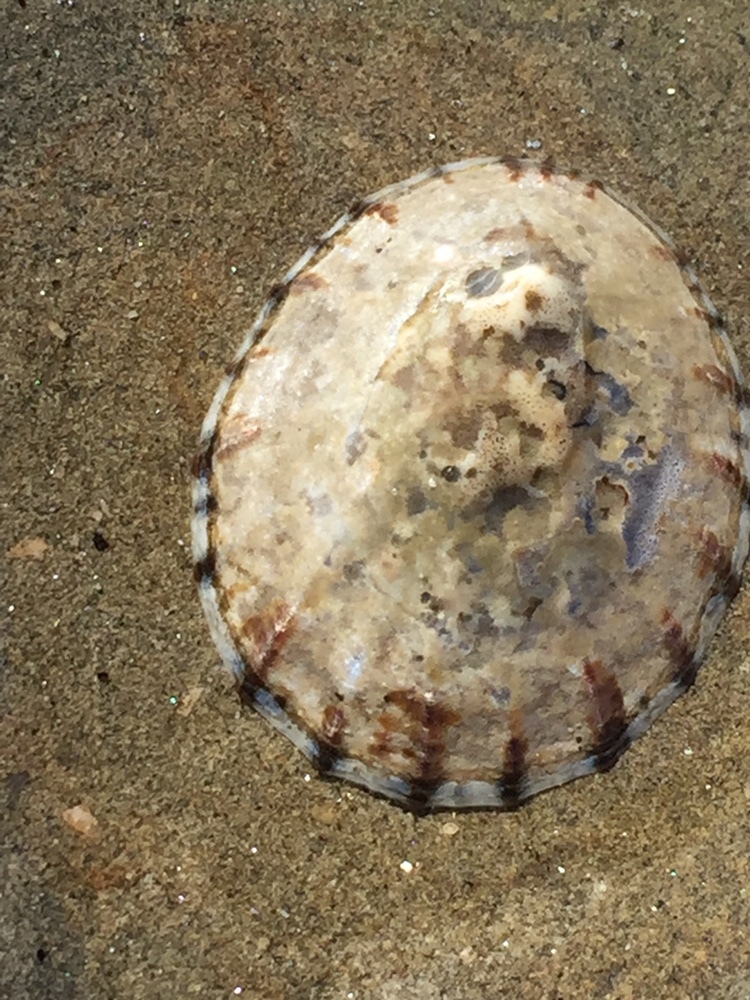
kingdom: Animalia
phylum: Mollusca
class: Gastropoda
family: Nacellidae
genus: Cellana
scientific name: Cellana radians
